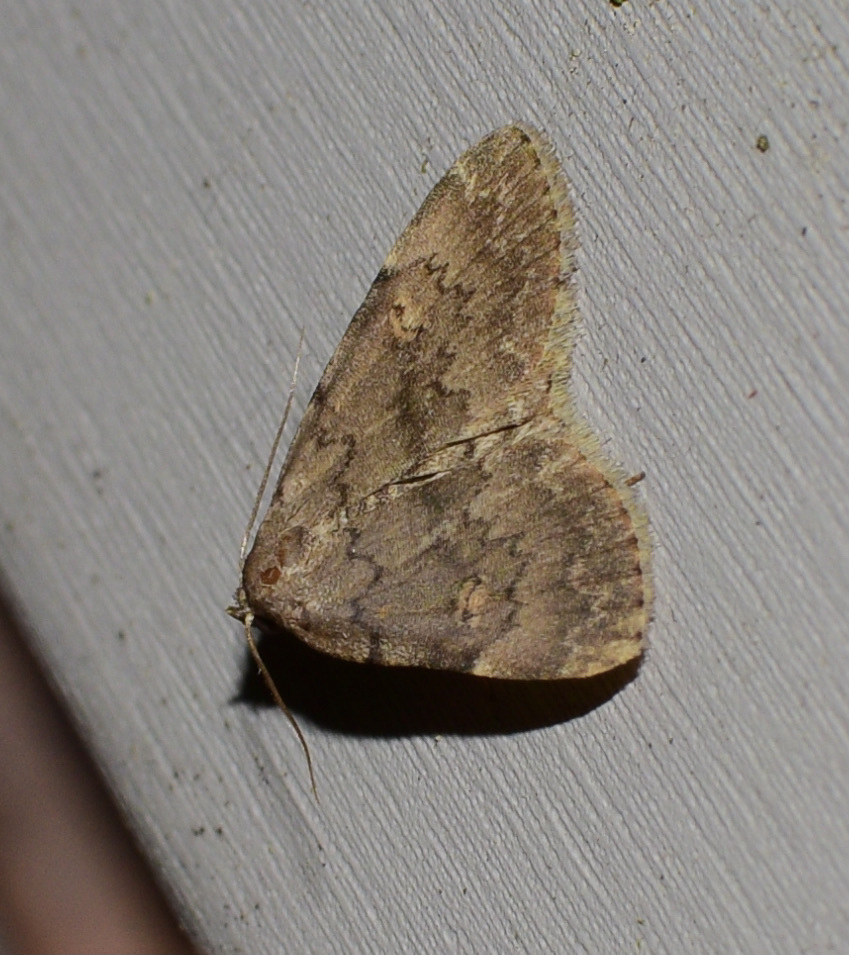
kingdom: Animalia
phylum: Arthropoda
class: Insecta
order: Lepidoptera
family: Erebidae
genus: Idia
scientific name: Idia aemula
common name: Common idia moth
